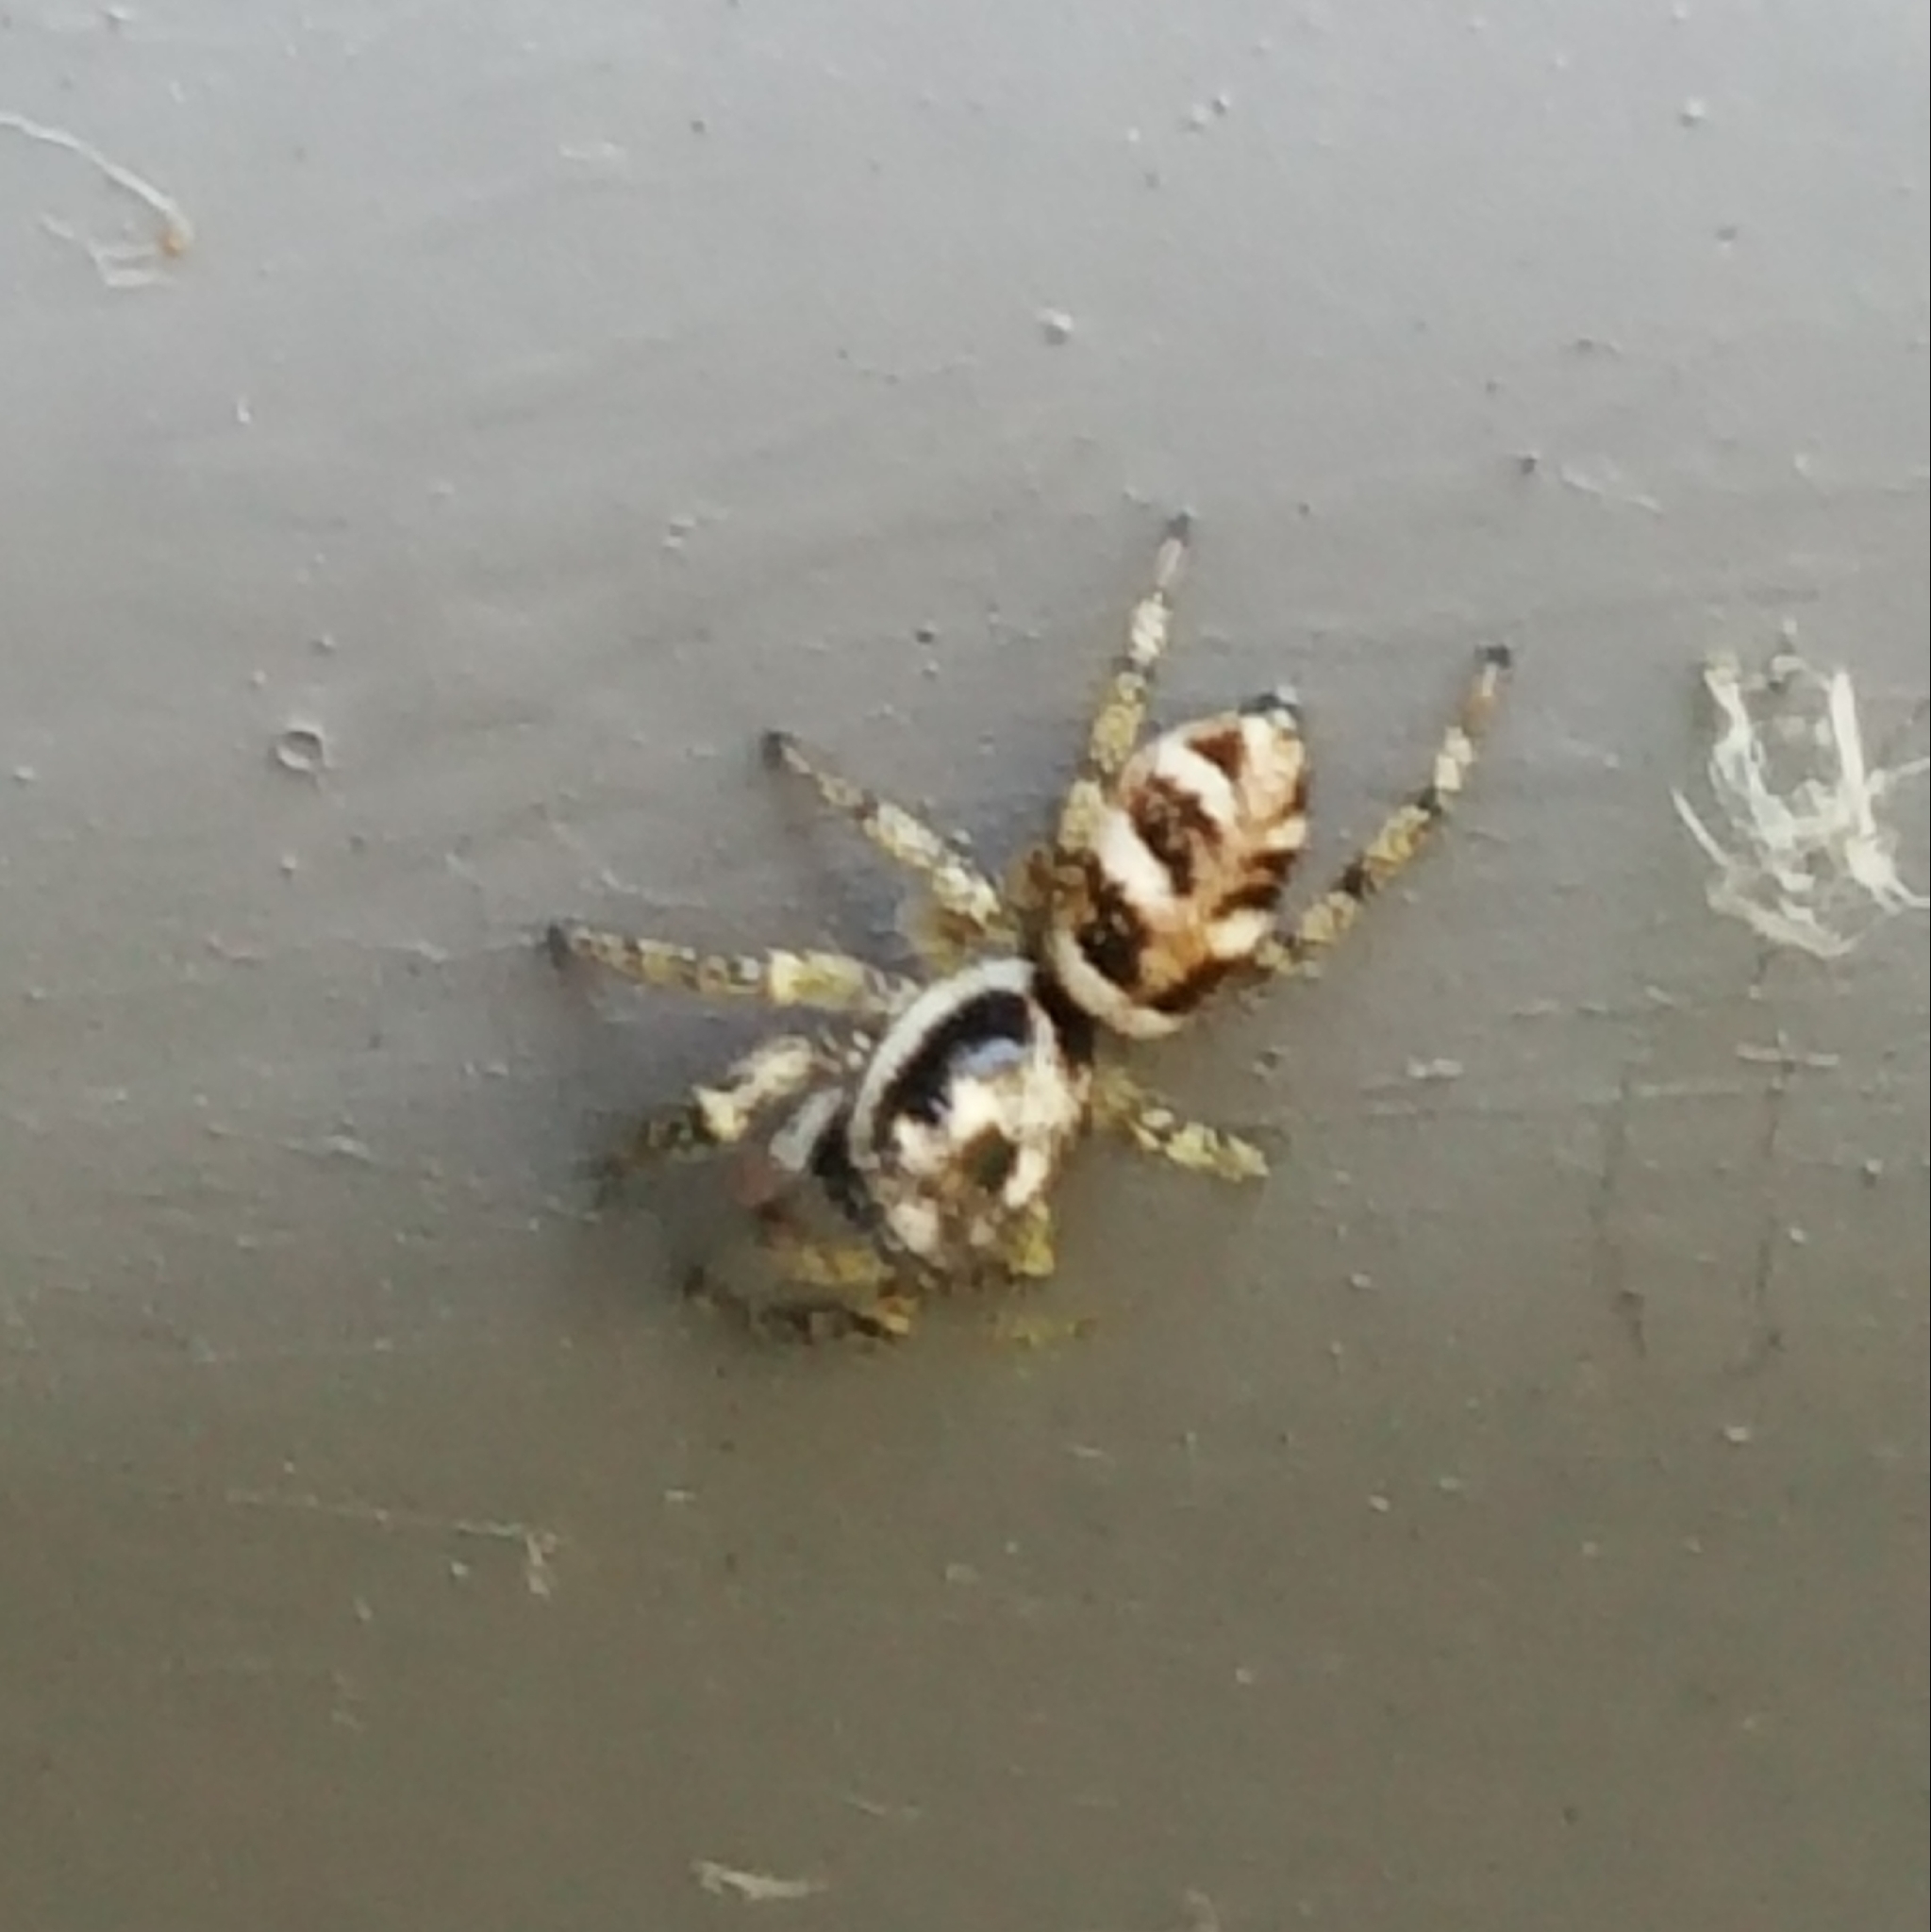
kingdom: Animalia
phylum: Arthropoda
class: Arachnida
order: Araneae
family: Salticidae
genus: Salticus
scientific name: Salticus scenicus
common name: Zebra jumper
